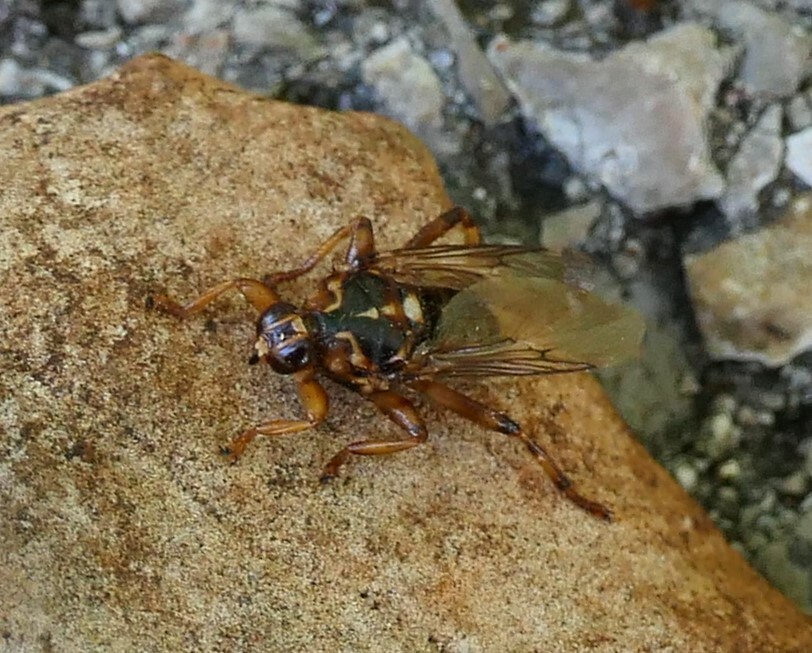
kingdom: Animalia
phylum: Arthropoda
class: Insecta
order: Diptera
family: Hippoboscidae
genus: Hippobosca
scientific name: Hippobosca equina
